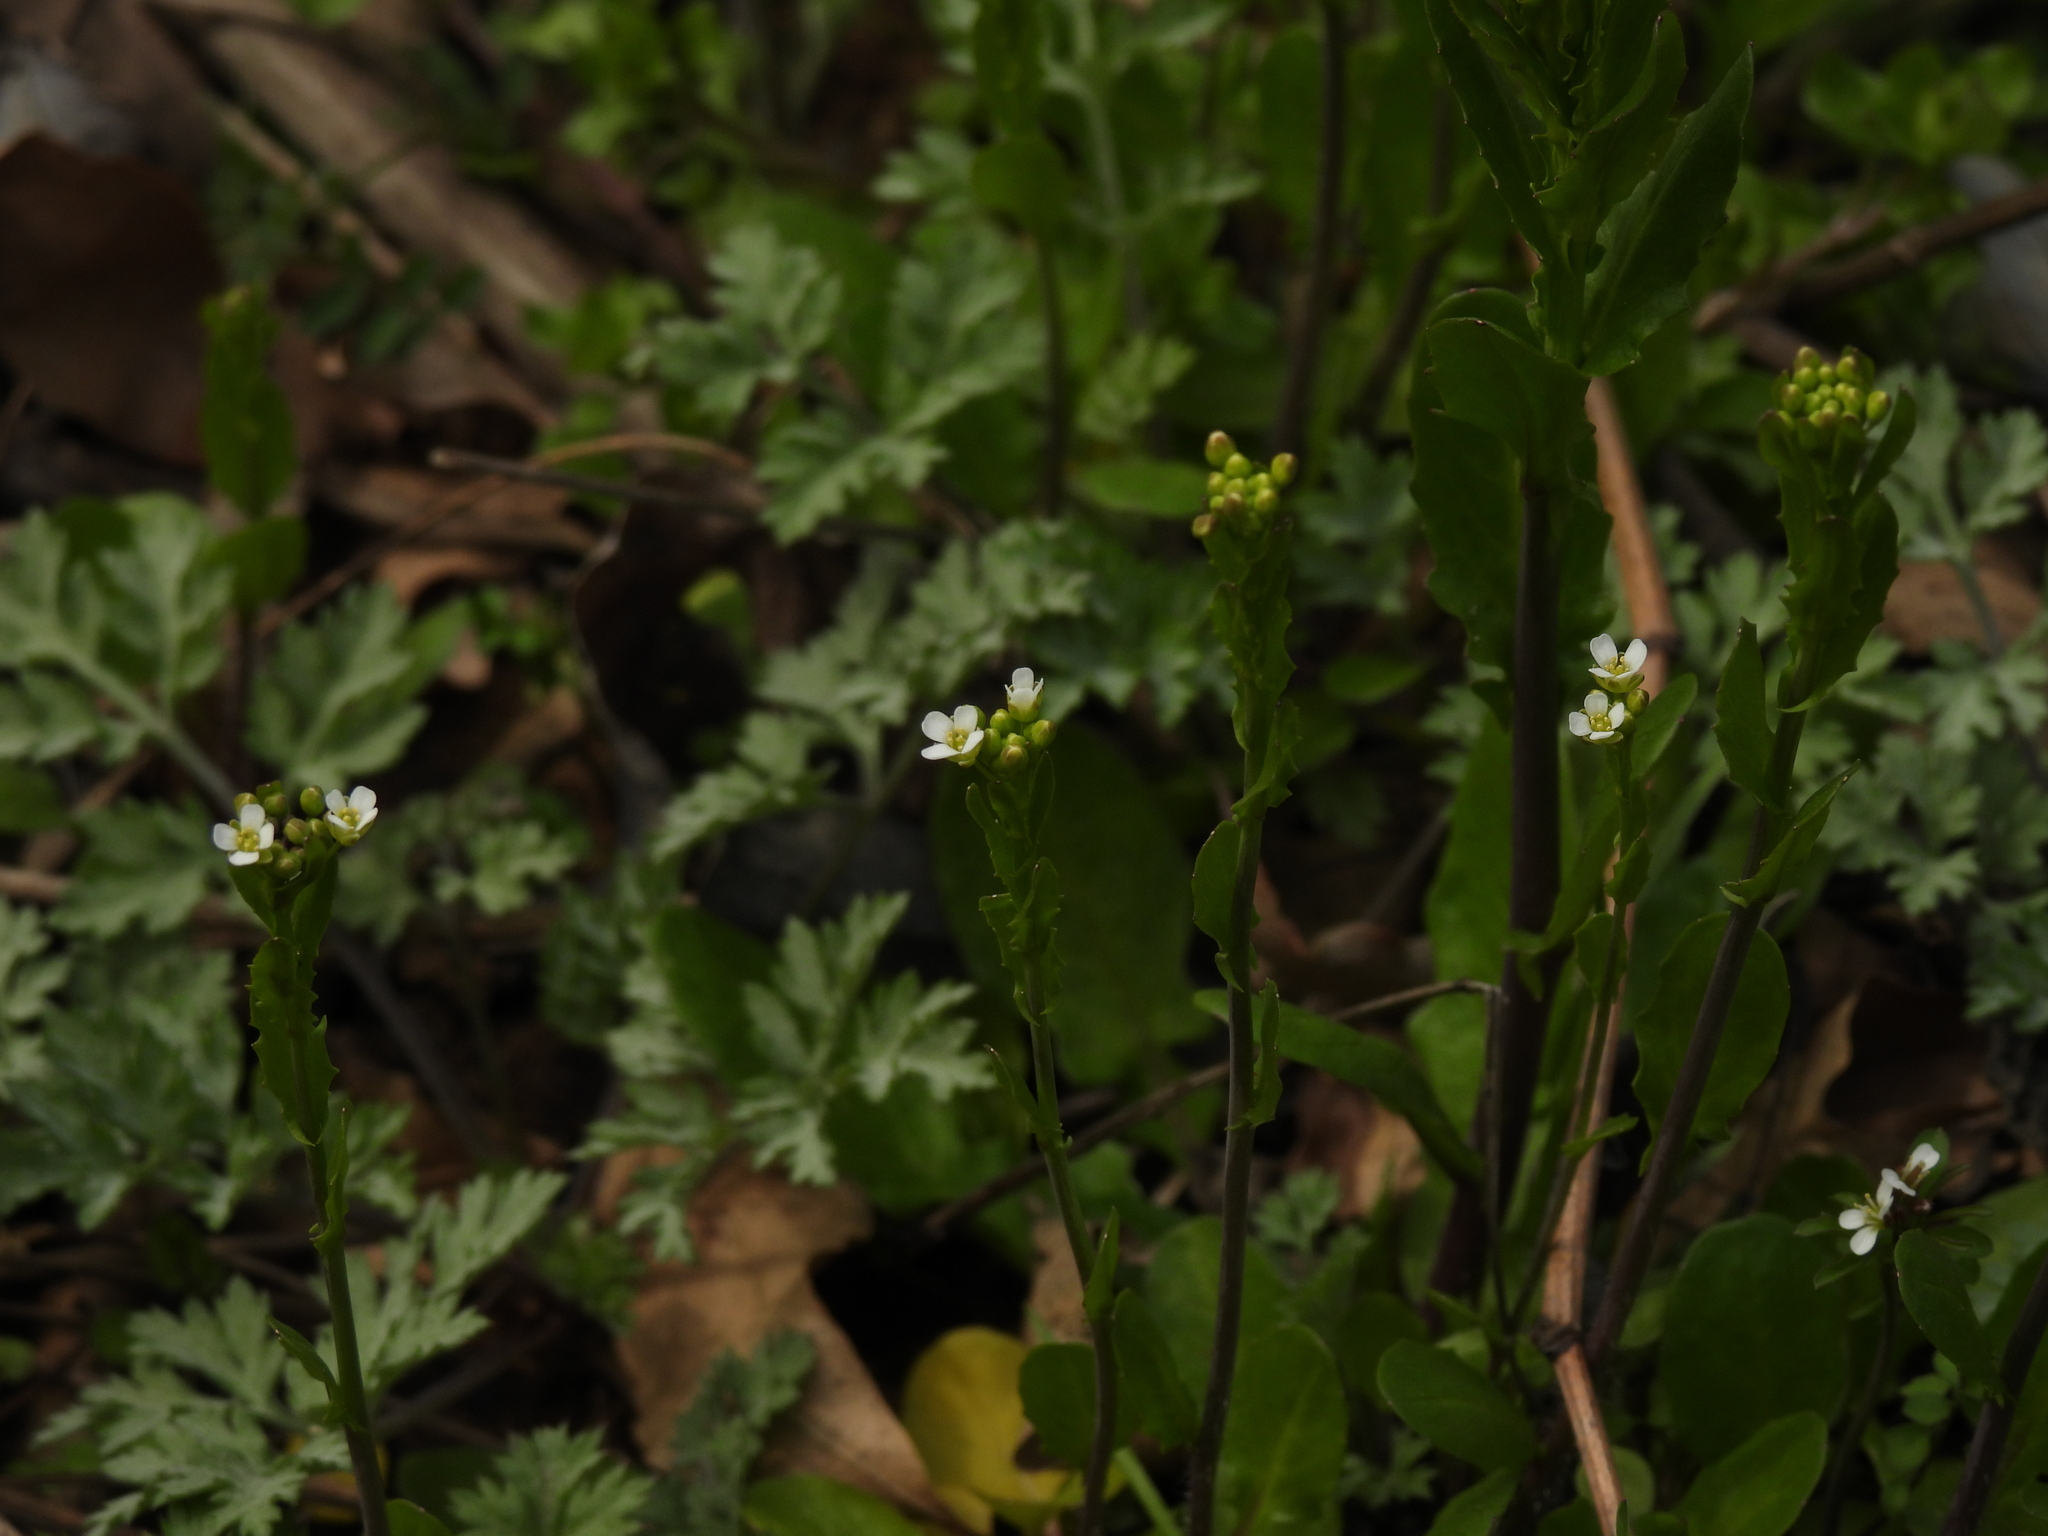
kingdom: Plantae
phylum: Tracheophyta
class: Magnoliopsida
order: Brassicales
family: Brassicaceae
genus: Mummenhoffia
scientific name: Mummenhoffia alliacea
